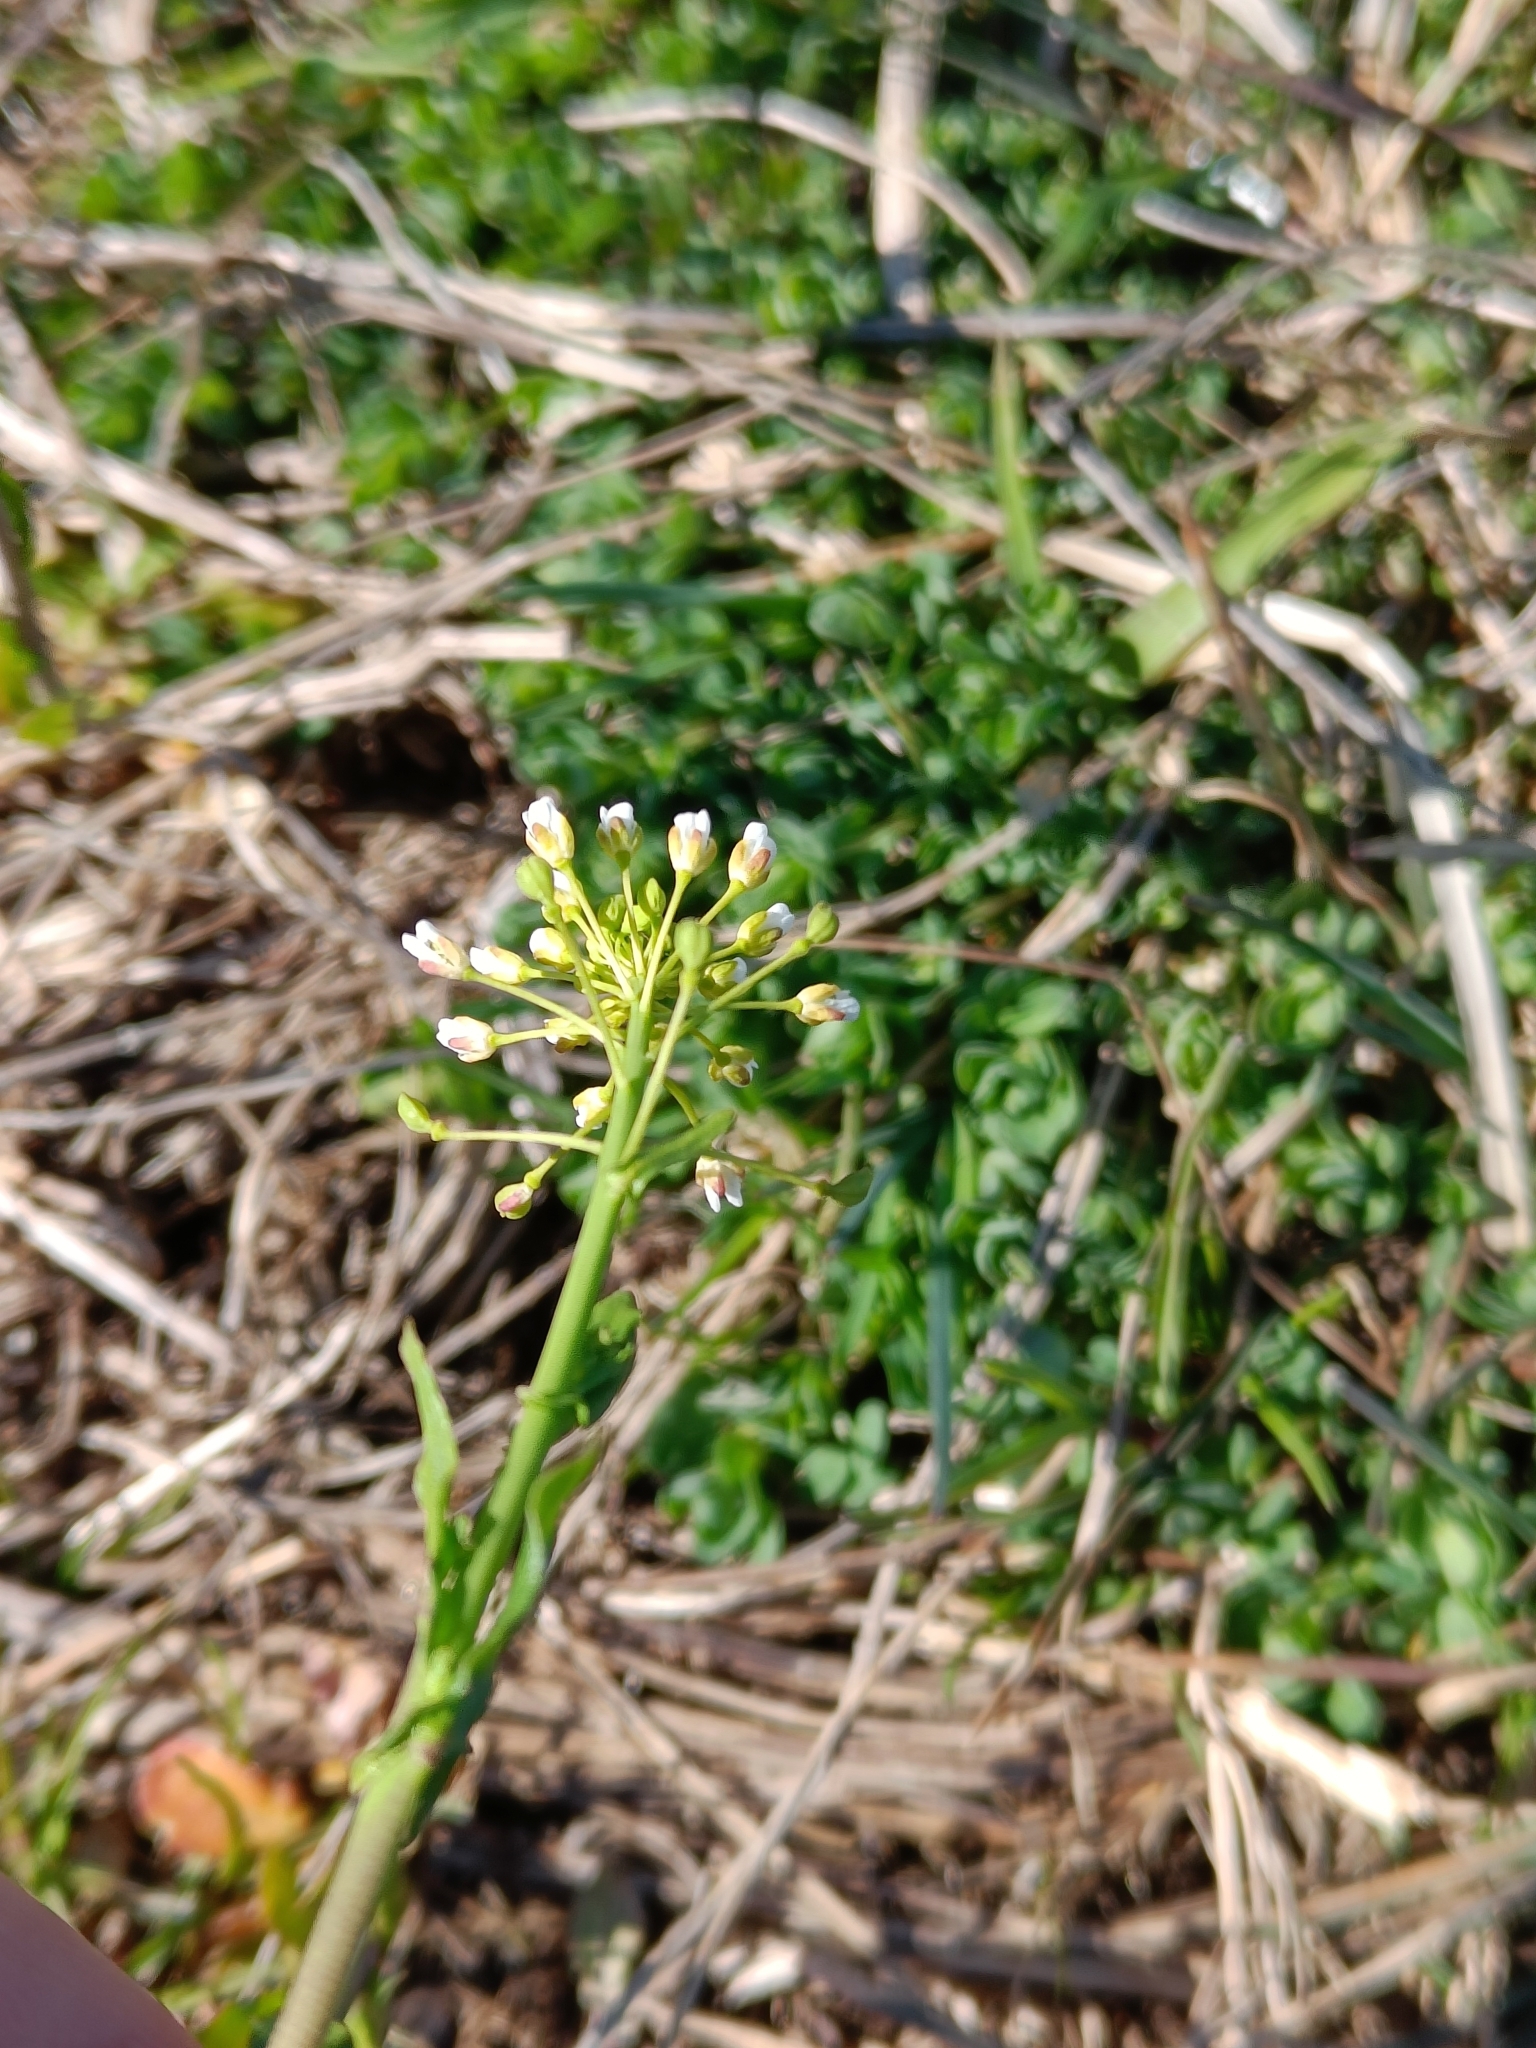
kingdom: Plantae
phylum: Tracheophyta
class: Magnoliopsida
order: Brassicales
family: Brassicaceae
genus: Mummenhoffia
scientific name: Mummenhoffia alliacea
